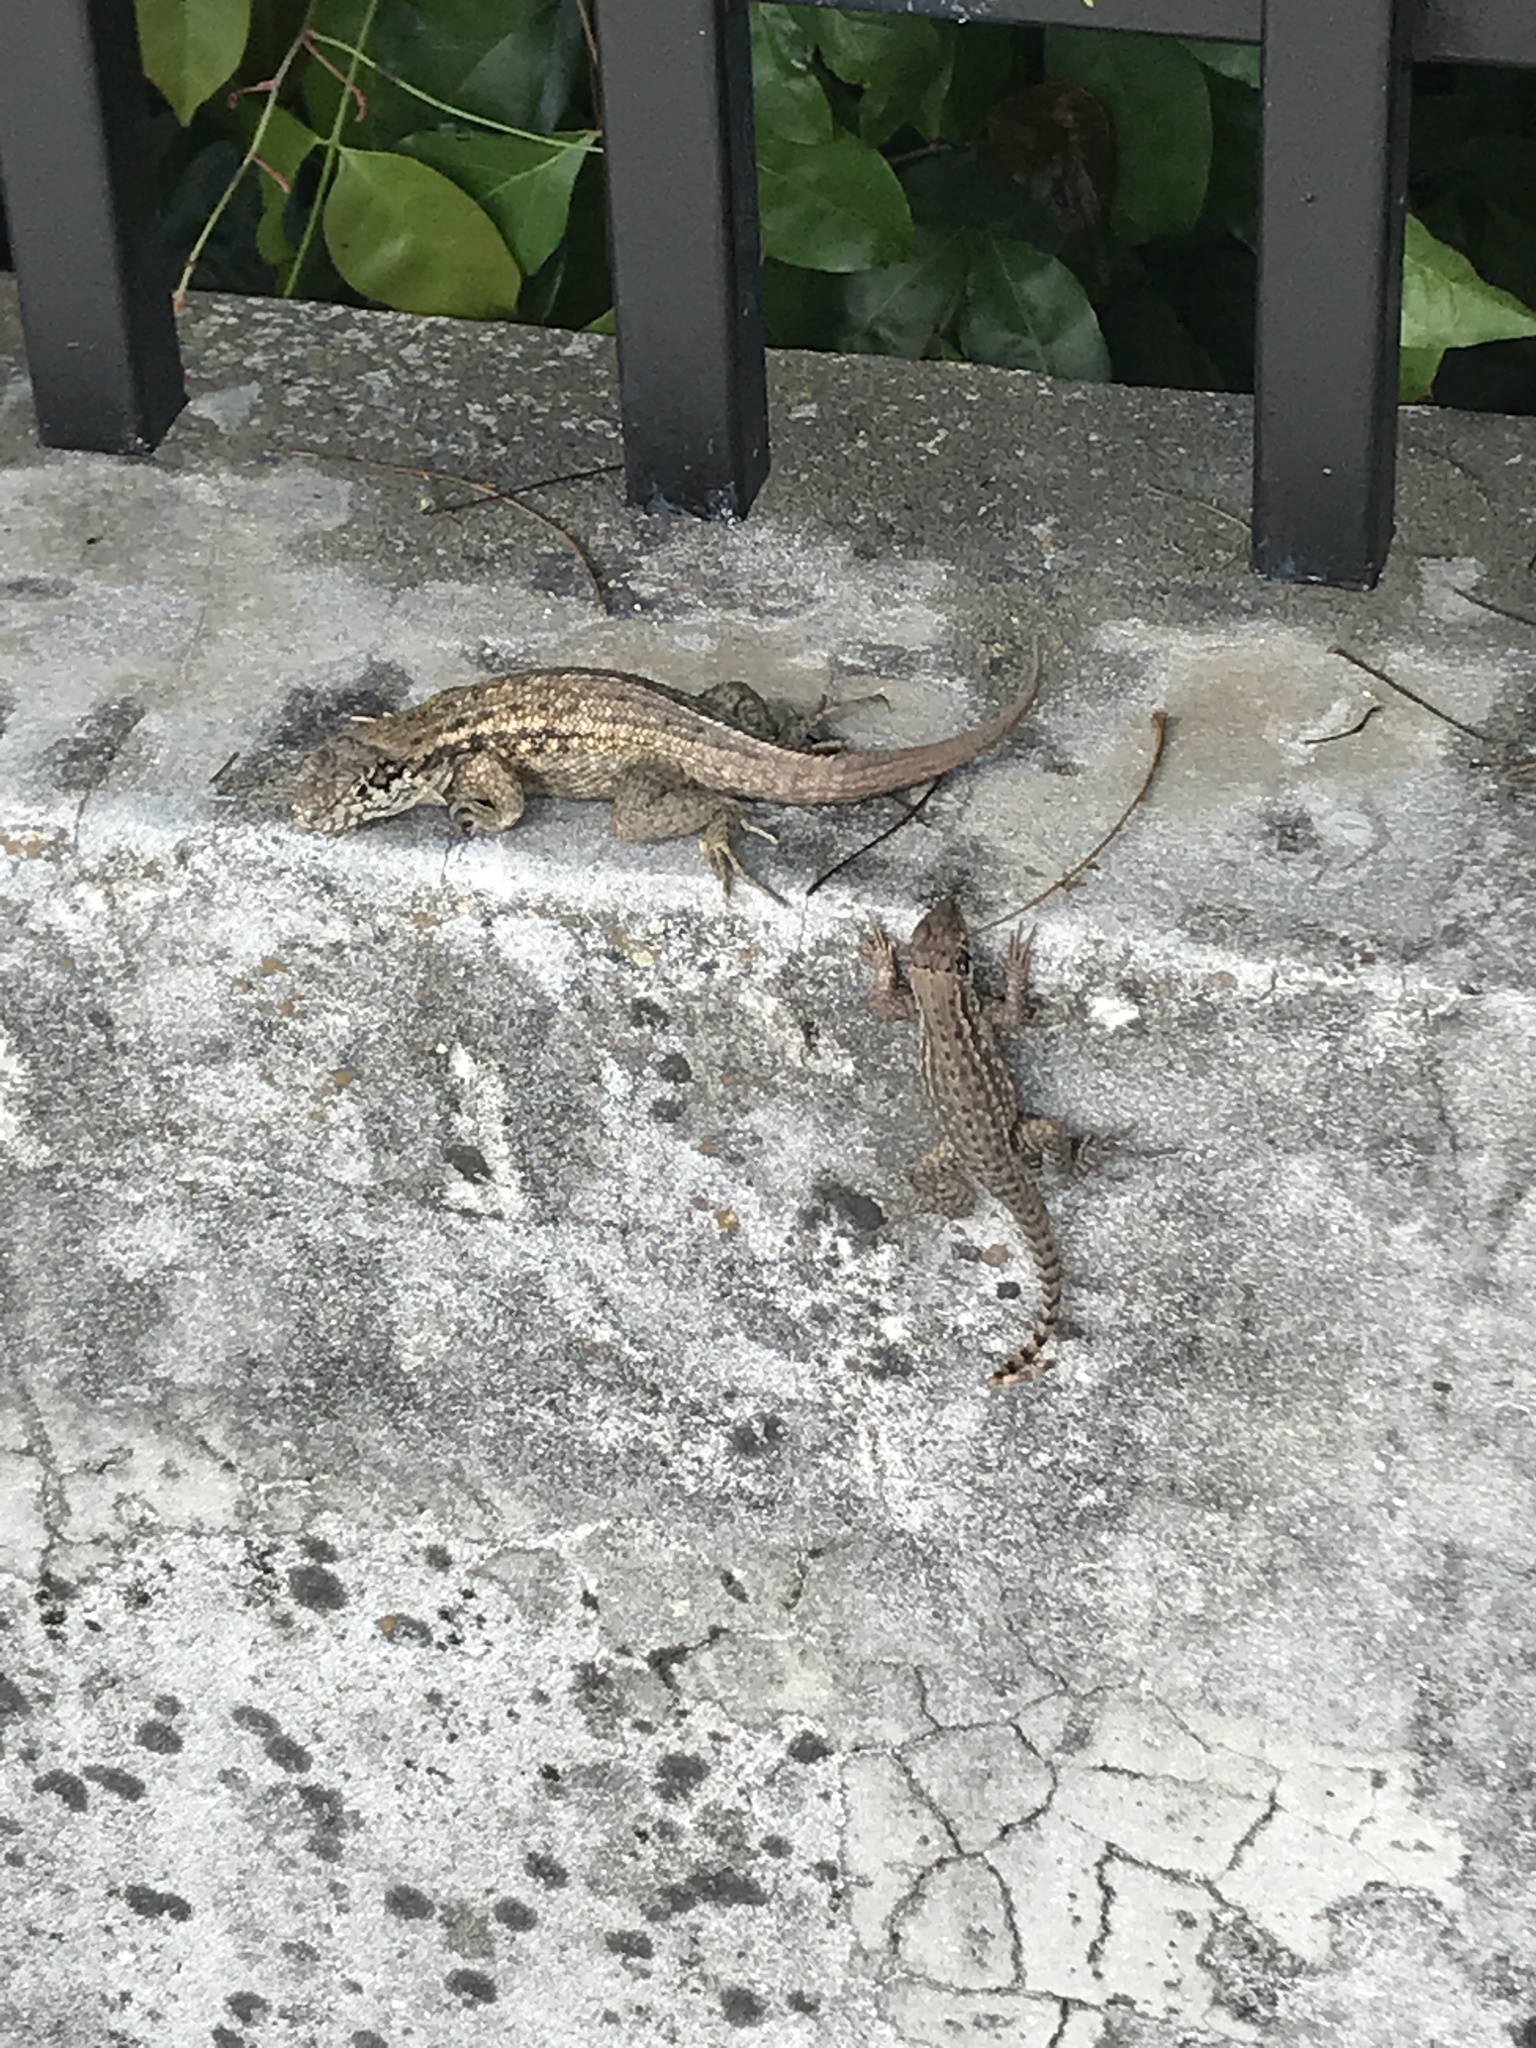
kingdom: Animalia
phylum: Chordata
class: Squamata
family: Leiocephalidae
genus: Leiocephalus
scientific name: Leiocephalus carinatus
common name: Northern curly-tailed lizard
